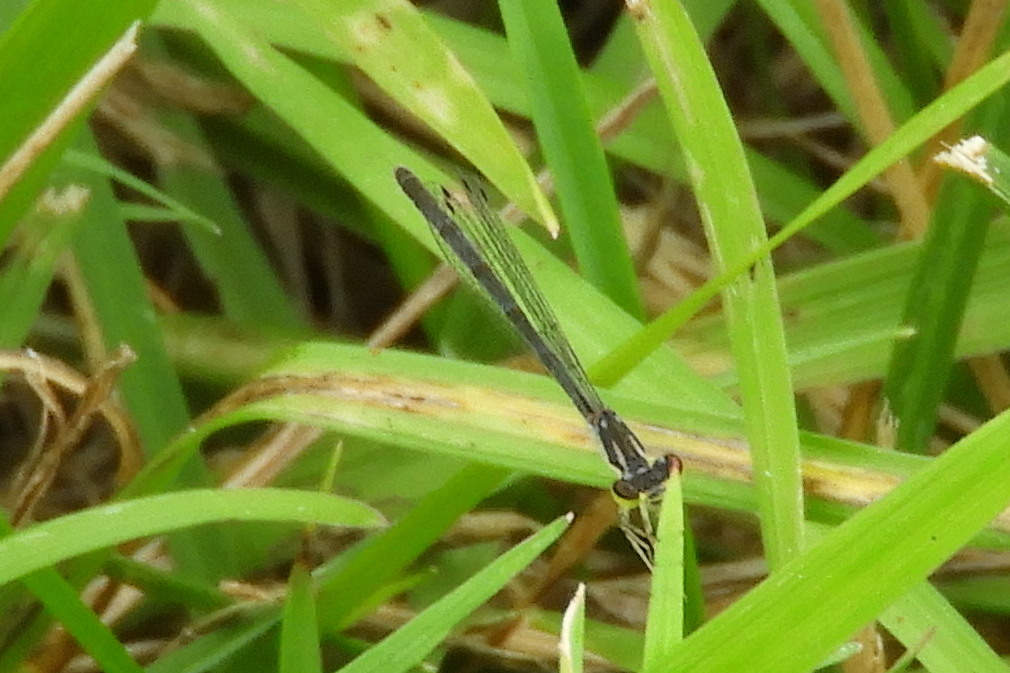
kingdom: Animalia
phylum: Arthropoda
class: Insecta
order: Odonata
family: Coenagrionidae
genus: Ischnura
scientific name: Ischnura posita
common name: Fragile forktail
